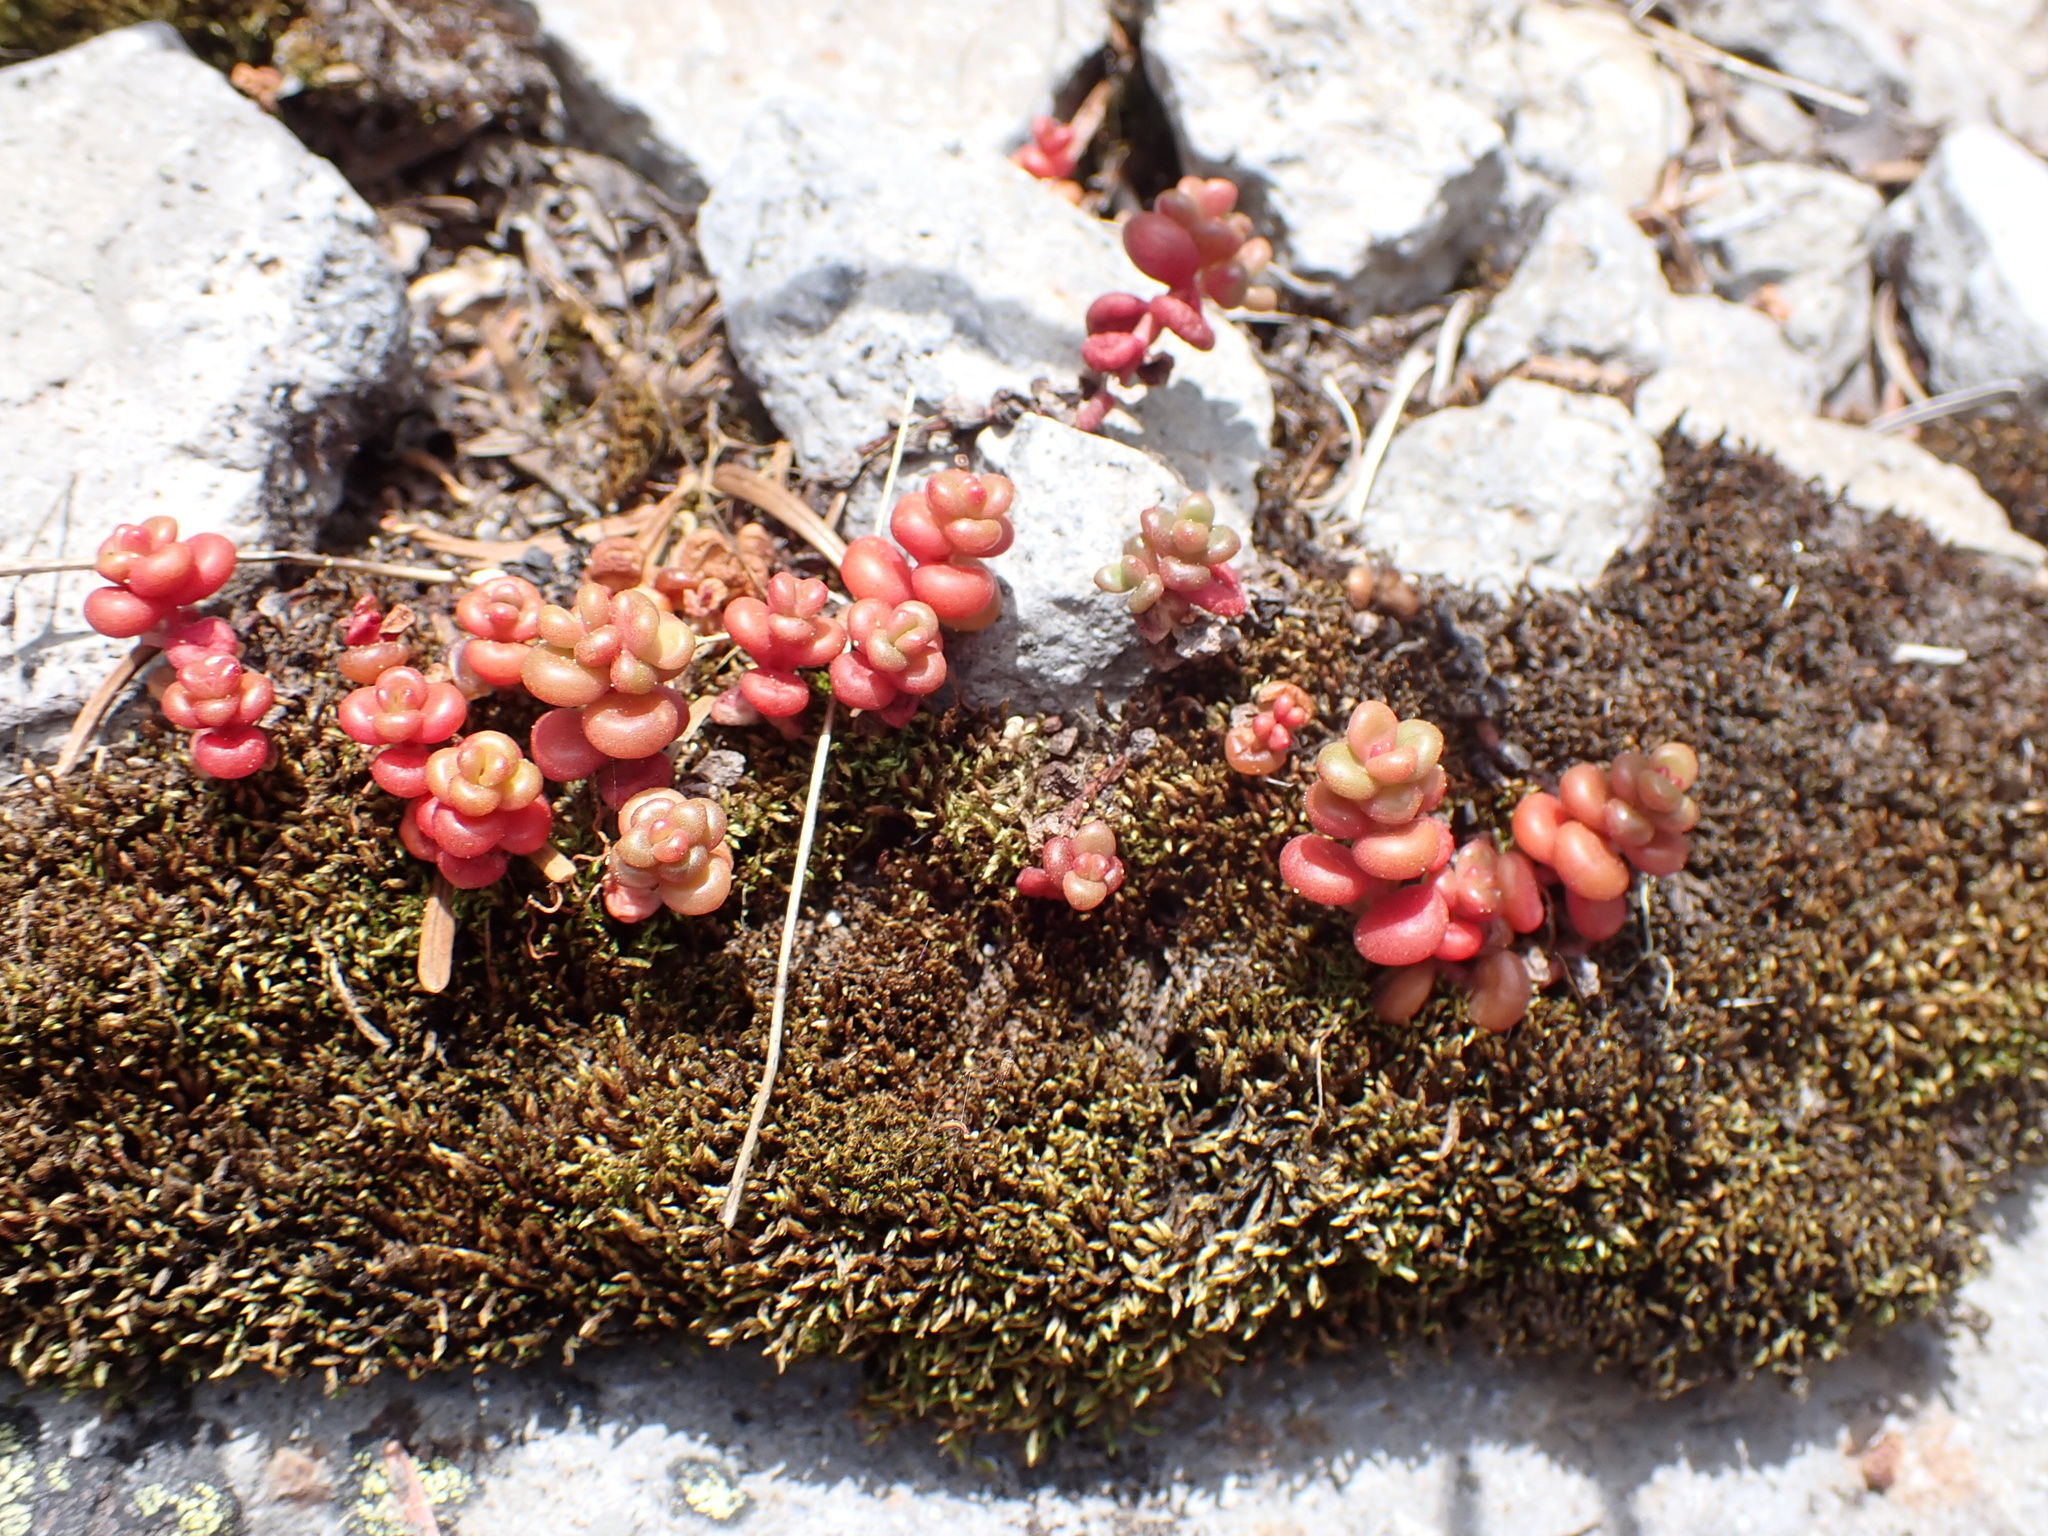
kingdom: Plantae
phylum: Tracheophyta
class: Magnoliopsida
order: Saxifragales
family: Crassulaceae
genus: Sedum
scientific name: Sedum divergens
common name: Cascade stonecrop
